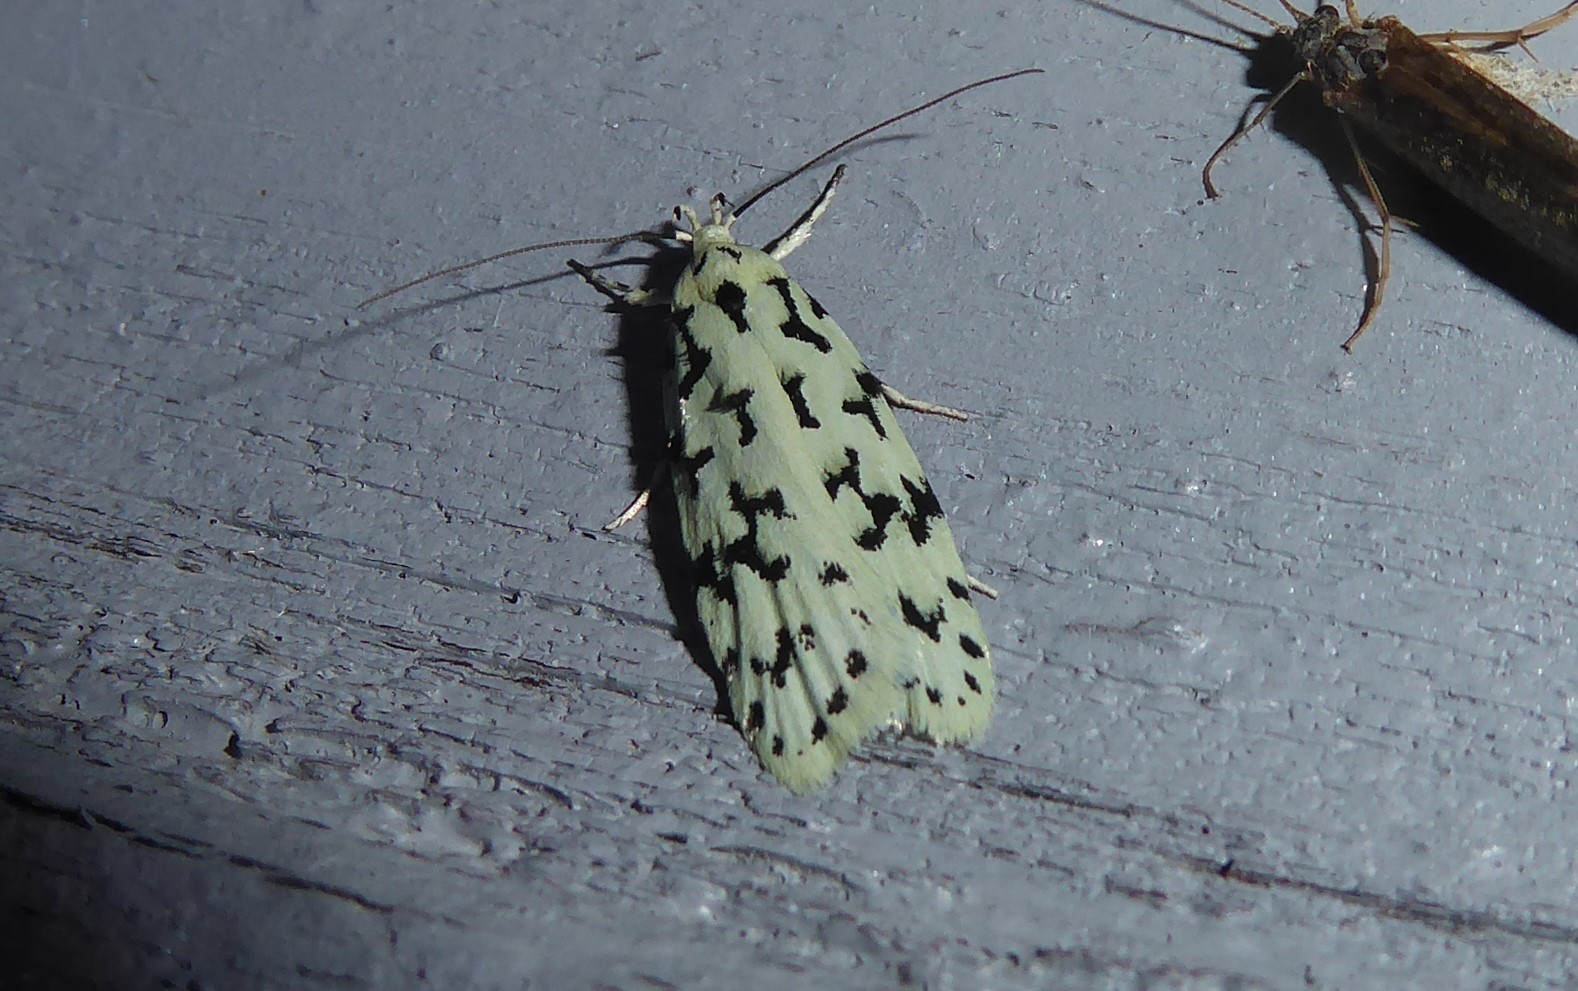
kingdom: Animalia
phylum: Arthropoda
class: Insecta
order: Lepidoptera
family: Oecophoridae
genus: Izatha
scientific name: Izatha huttoni
